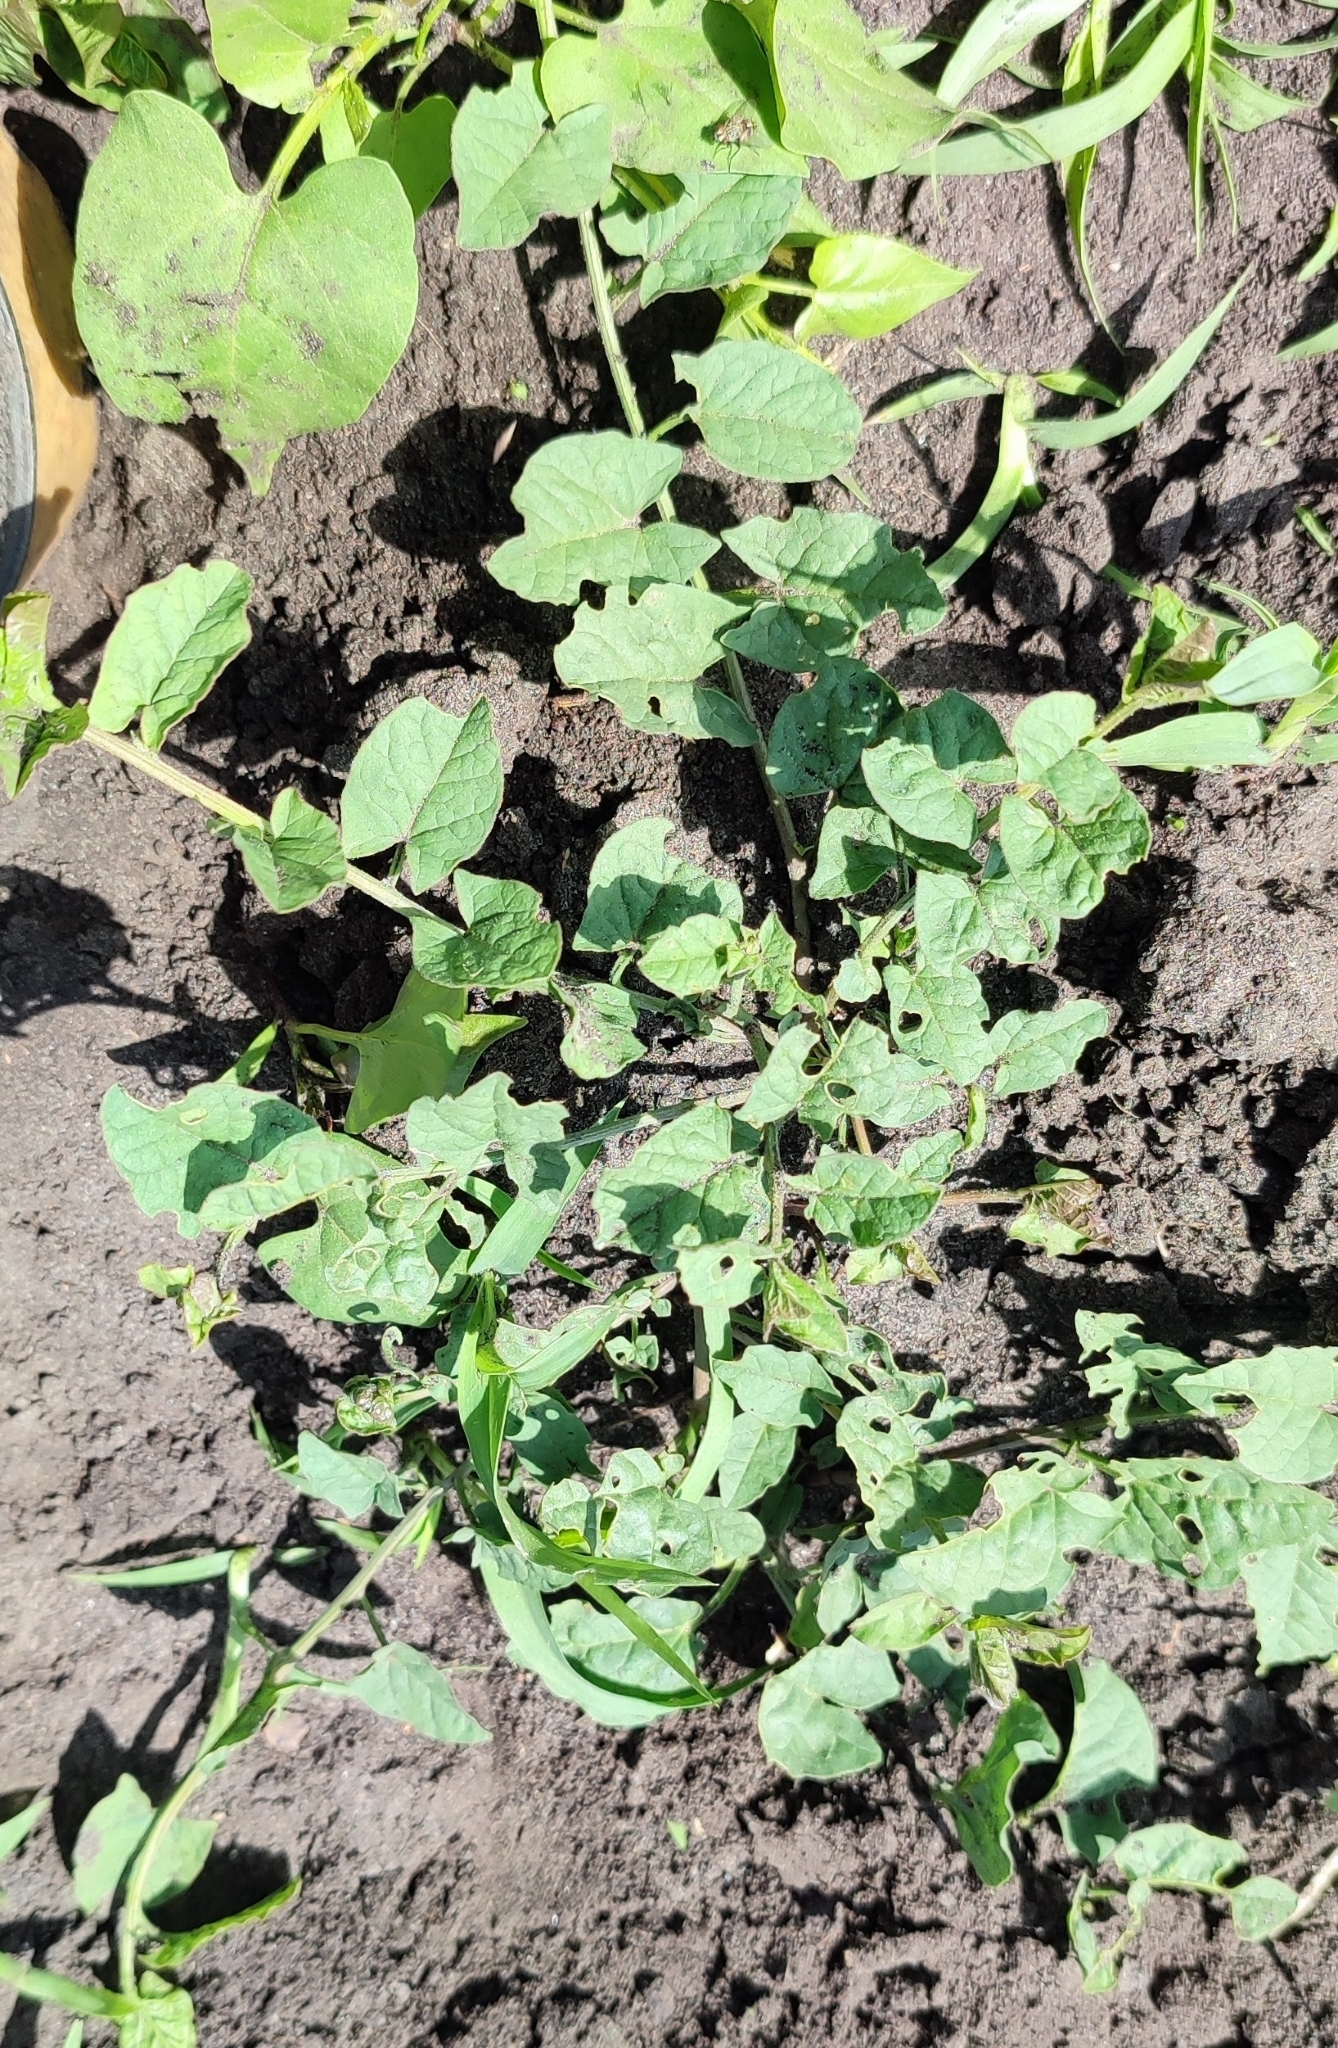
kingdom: Plantae
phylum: Tracheophyta
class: Magnoliopsida
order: Solanales
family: Convolvulaceae
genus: Convolvulus
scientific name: Convolvulus arvensis
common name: Field bindweed
